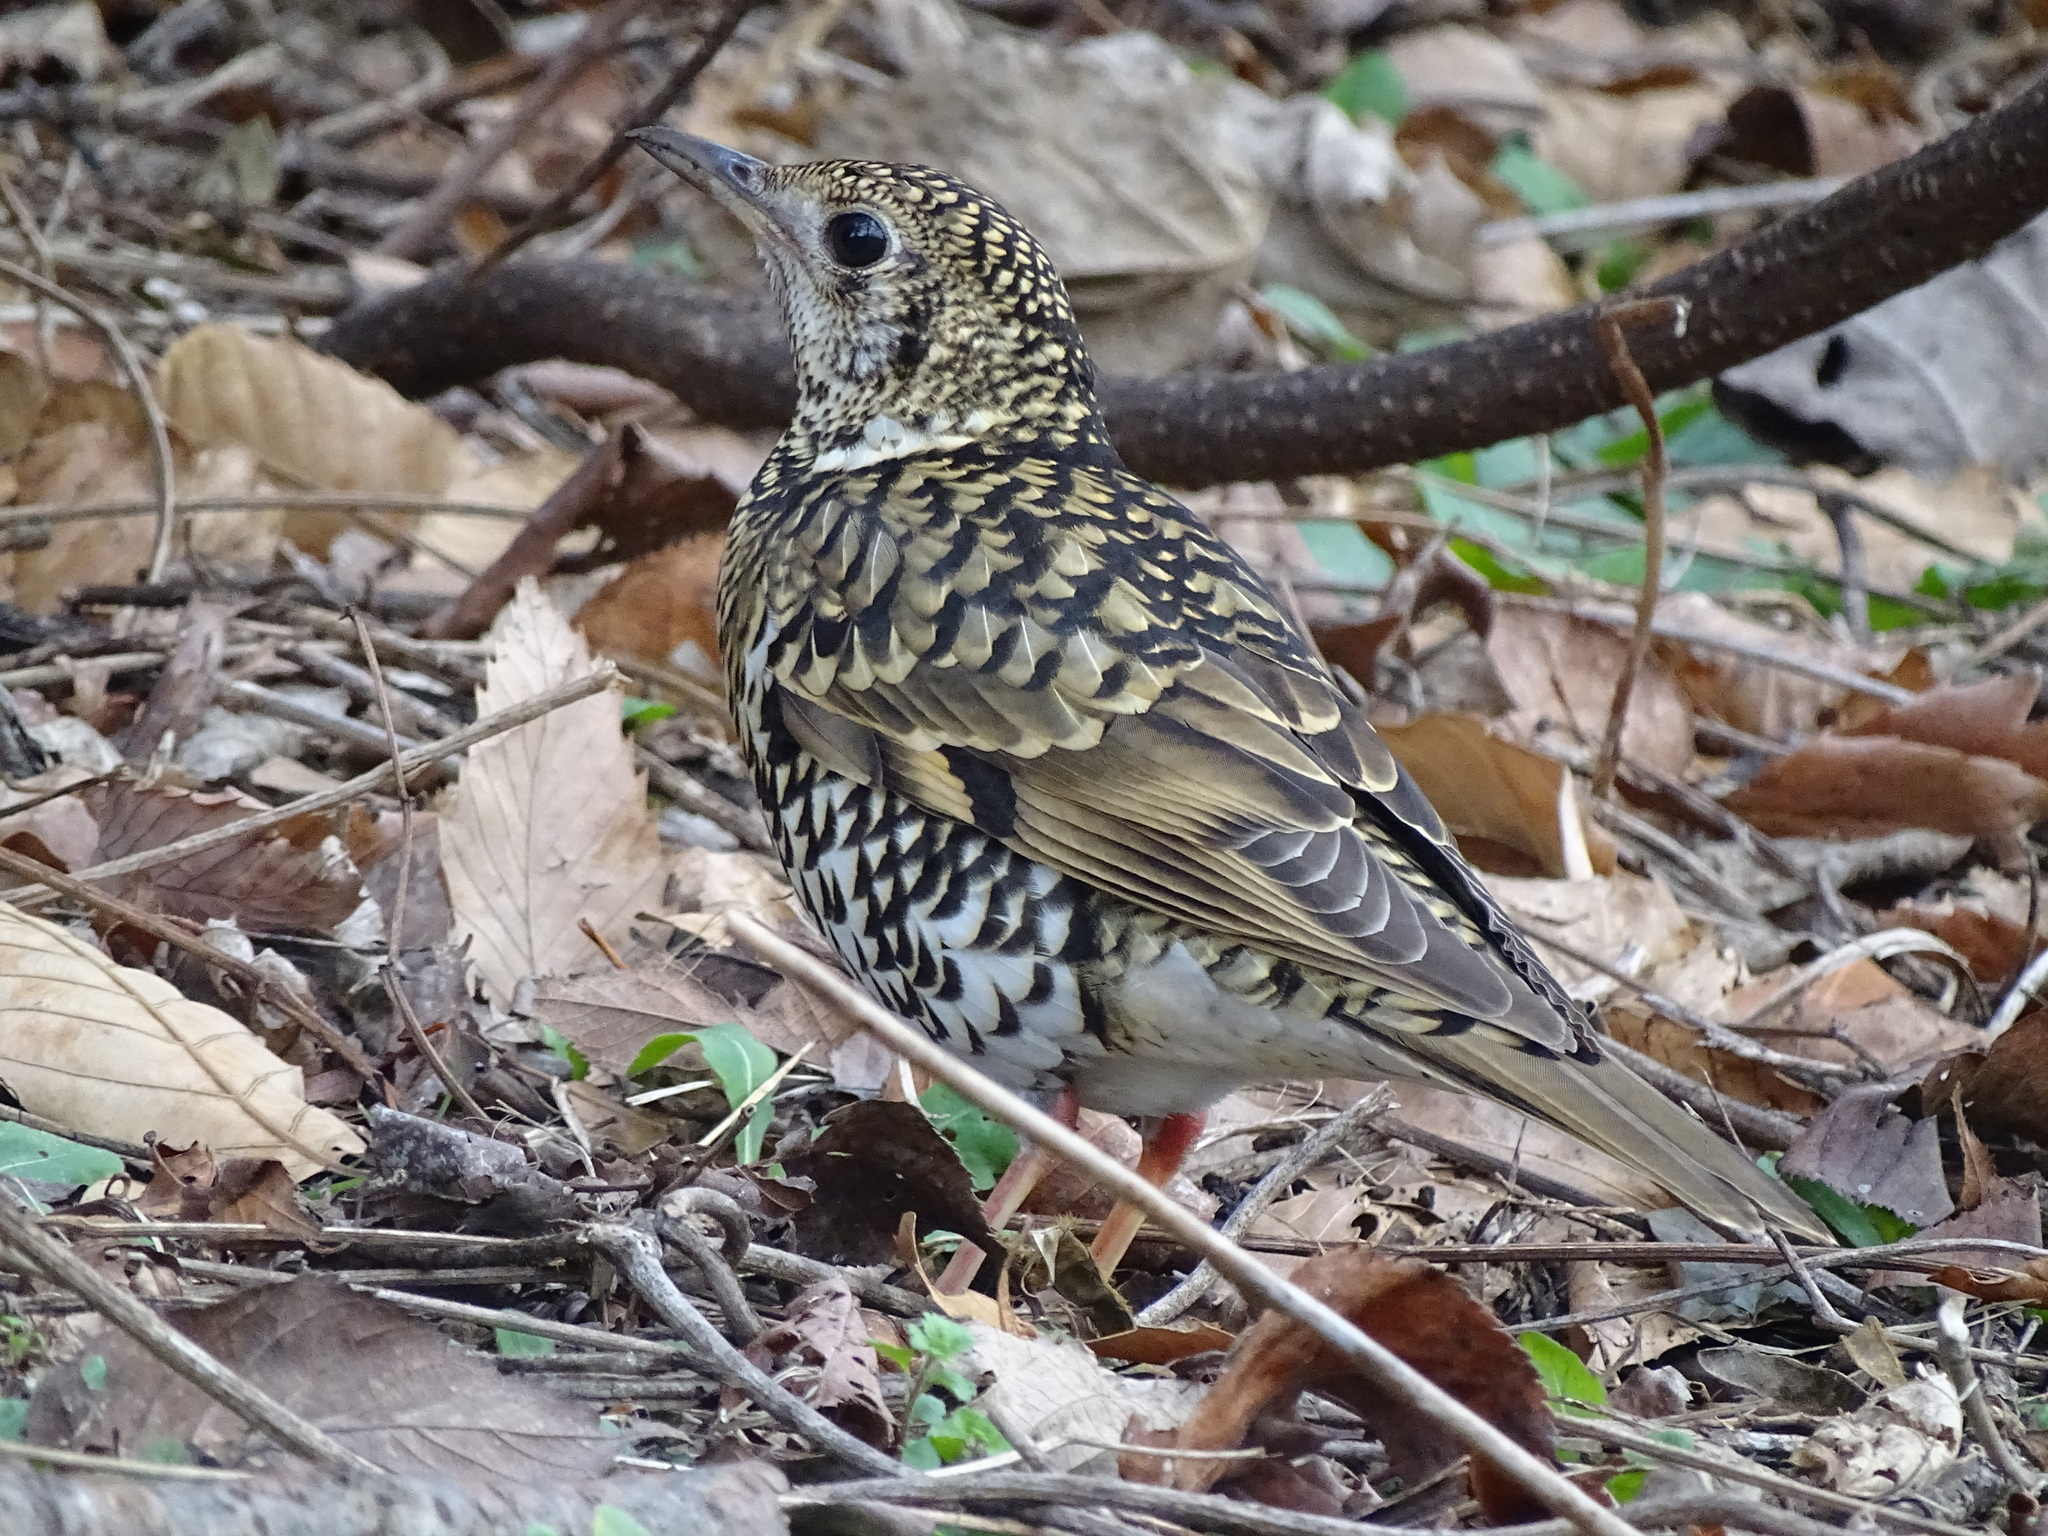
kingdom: Animalia
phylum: Chordata
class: Aves
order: Passeriformes
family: Turdidae
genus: Zoothera
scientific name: Zoothera aurea
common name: White's thrush
